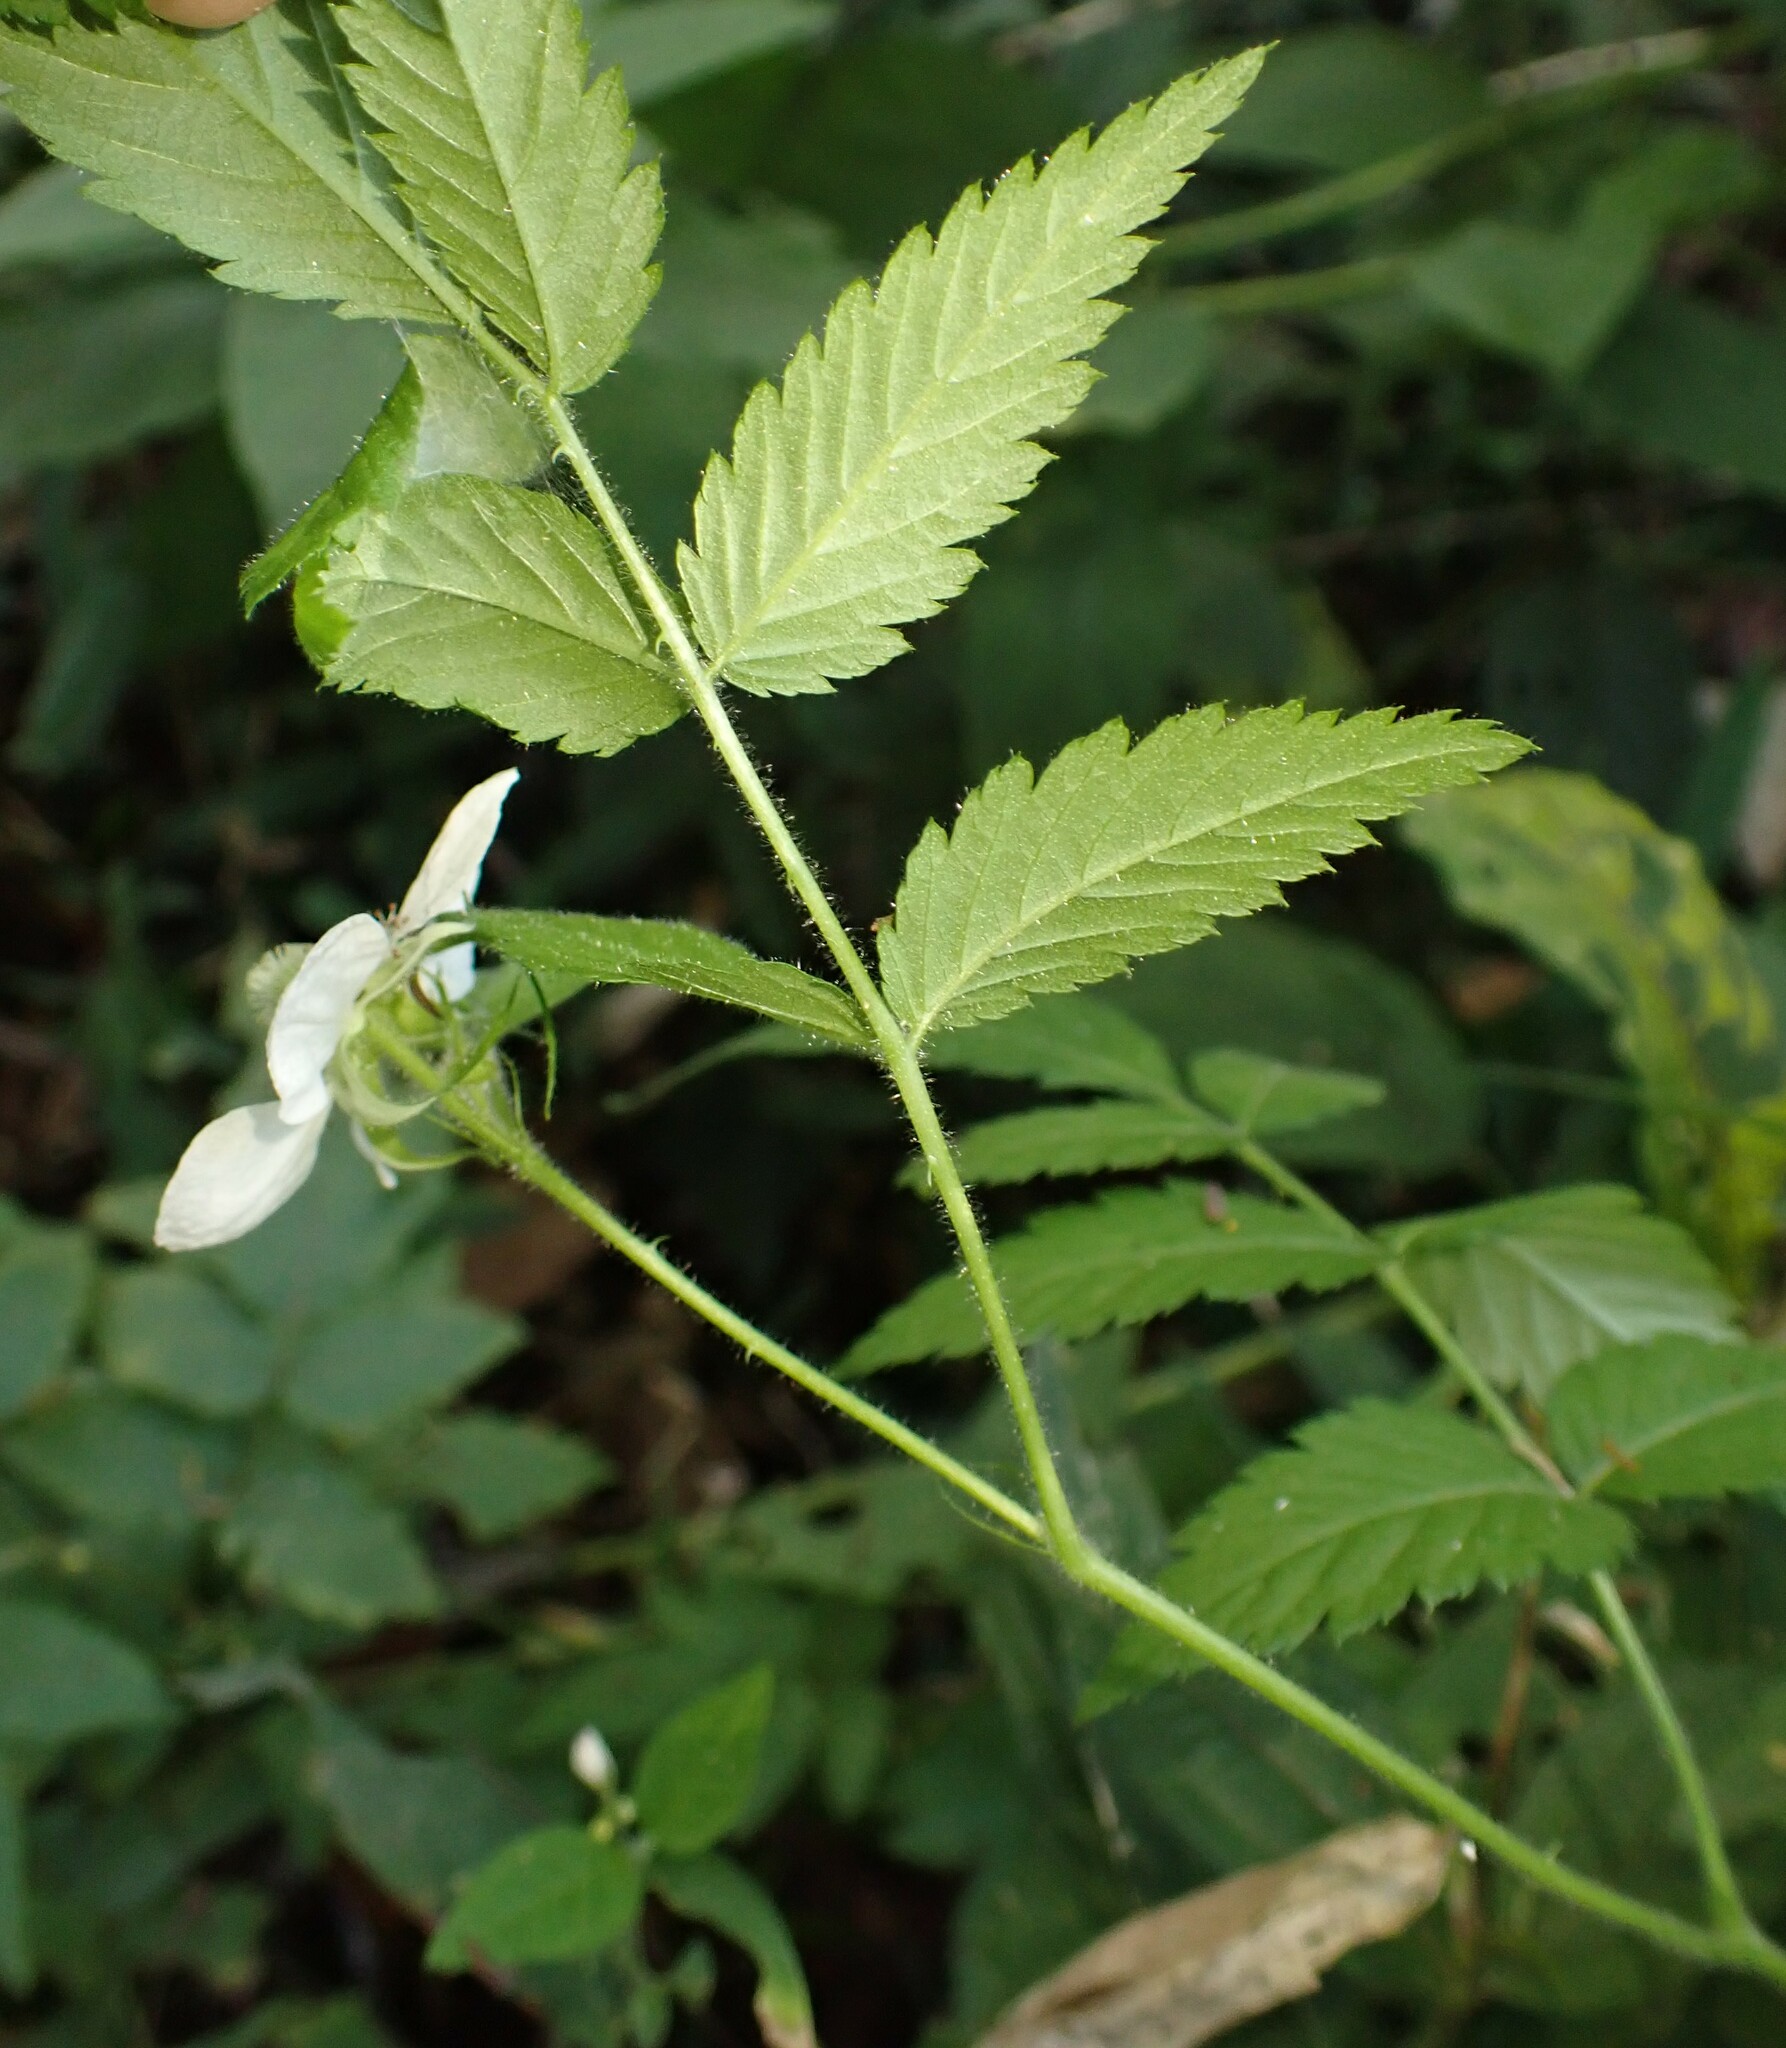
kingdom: Plantae
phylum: Tracheophyta
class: Magnoliopsida
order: Rosales
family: Rosaceae
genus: Rubus
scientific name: Rubus rosifolius
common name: Roseleaf raspberry
